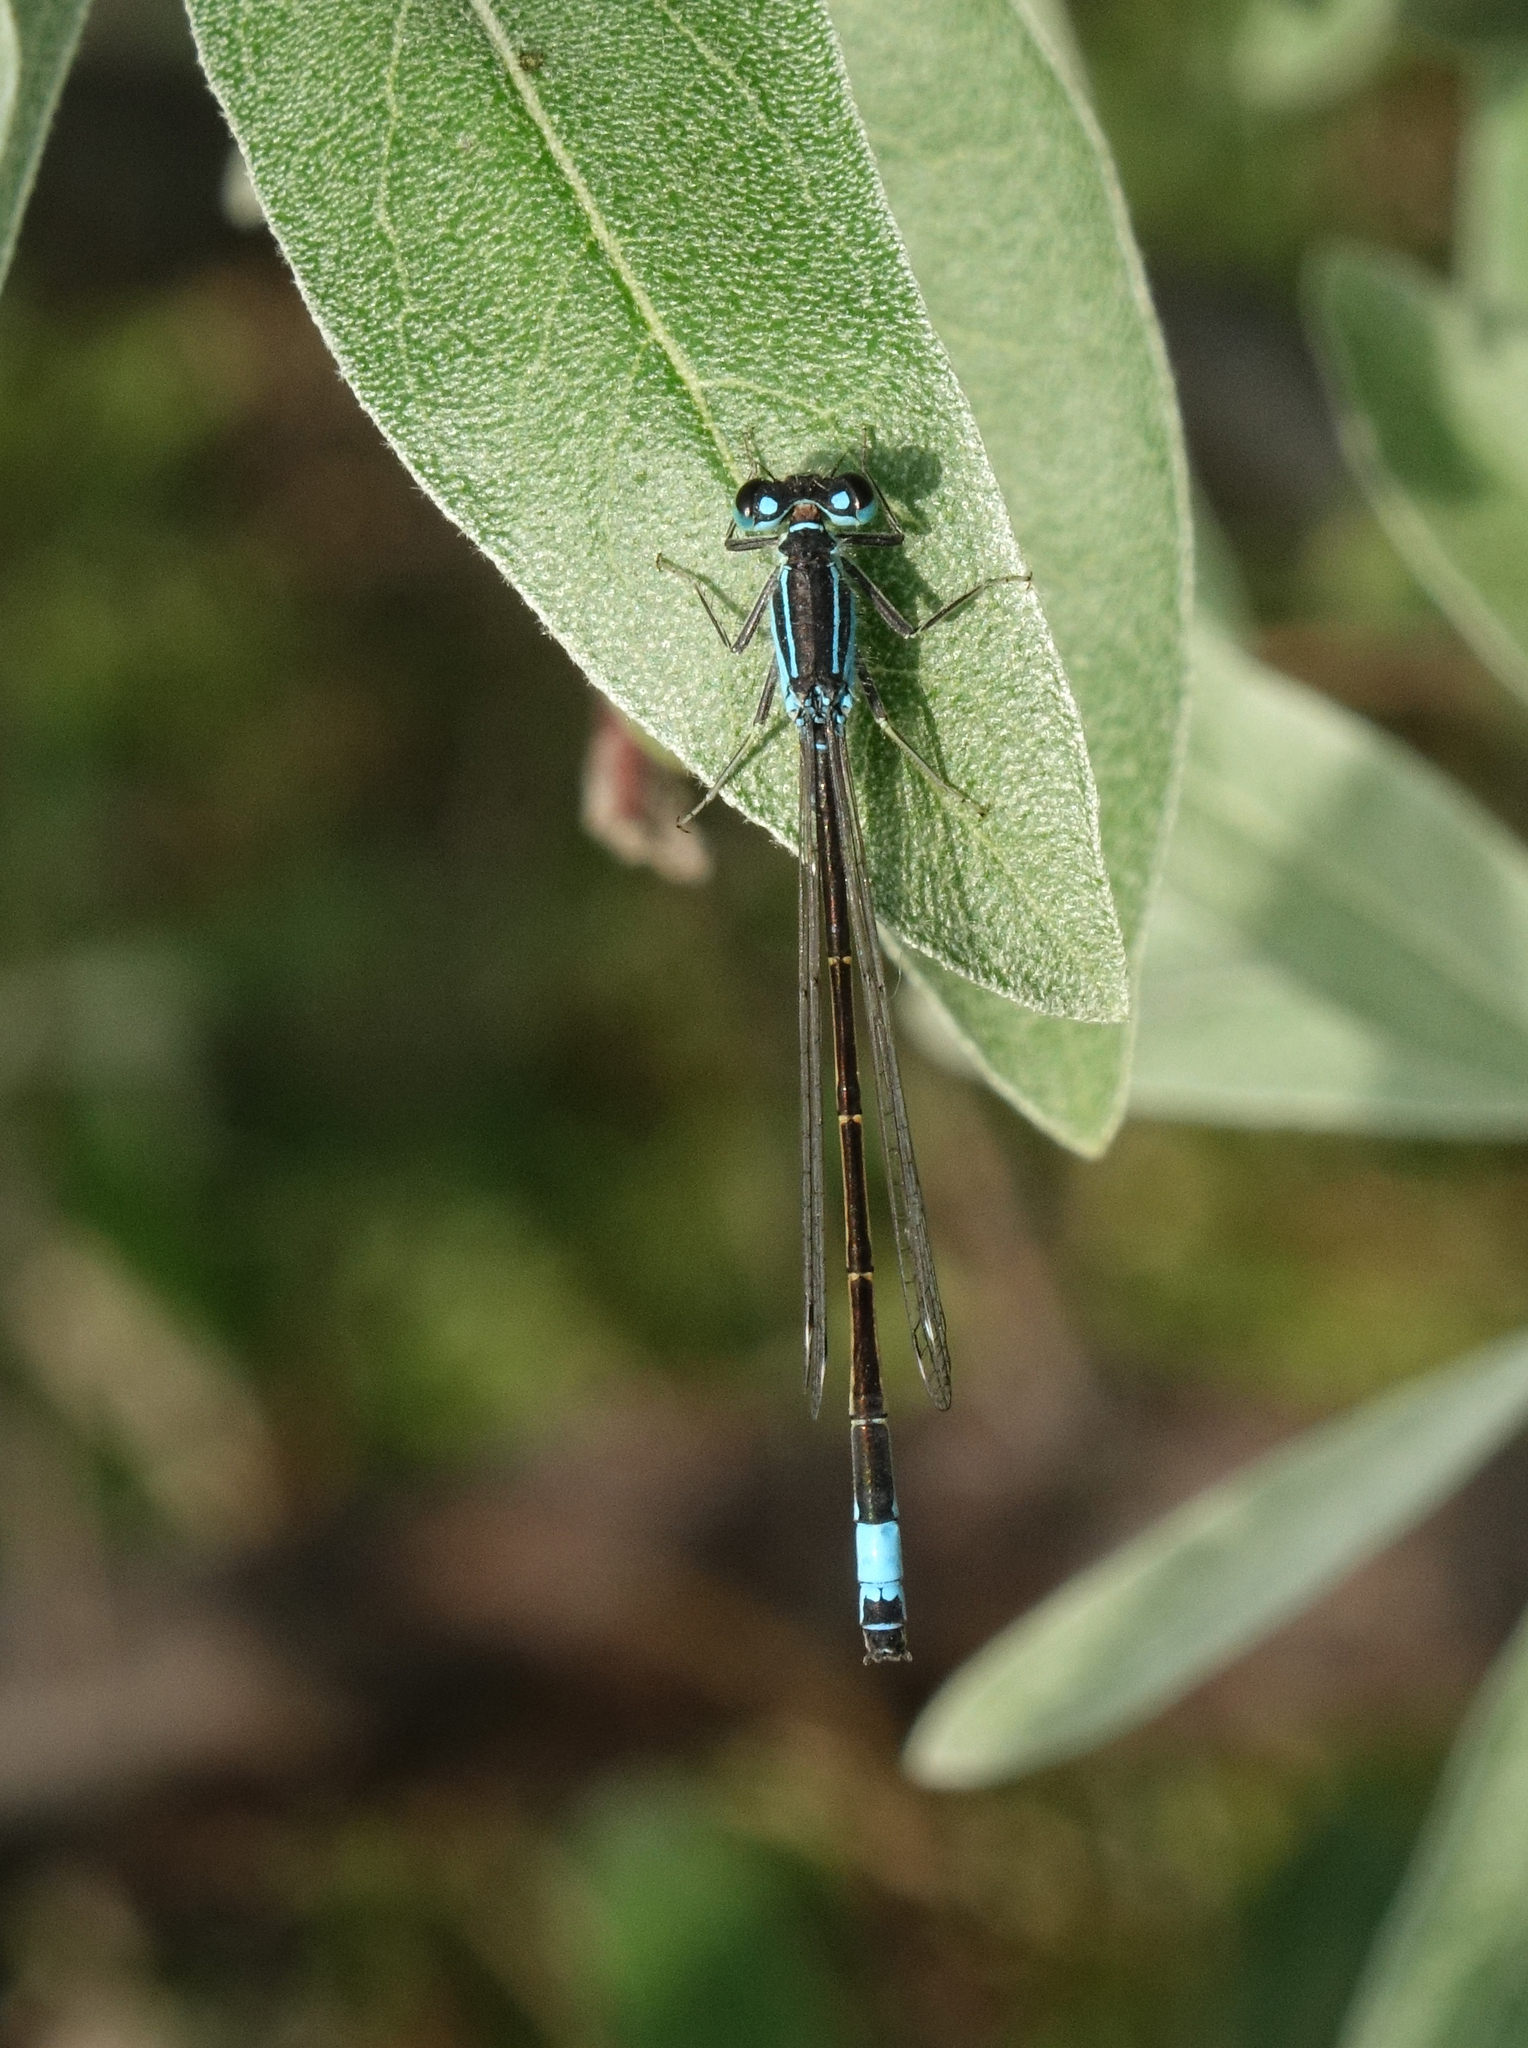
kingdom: Animalia
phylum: Arthropoda
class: Insecta
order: Odonata
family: Coenagrionidae
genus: Ischnura
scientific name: Ischnura elegans
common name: Blue-tailed damselfly
